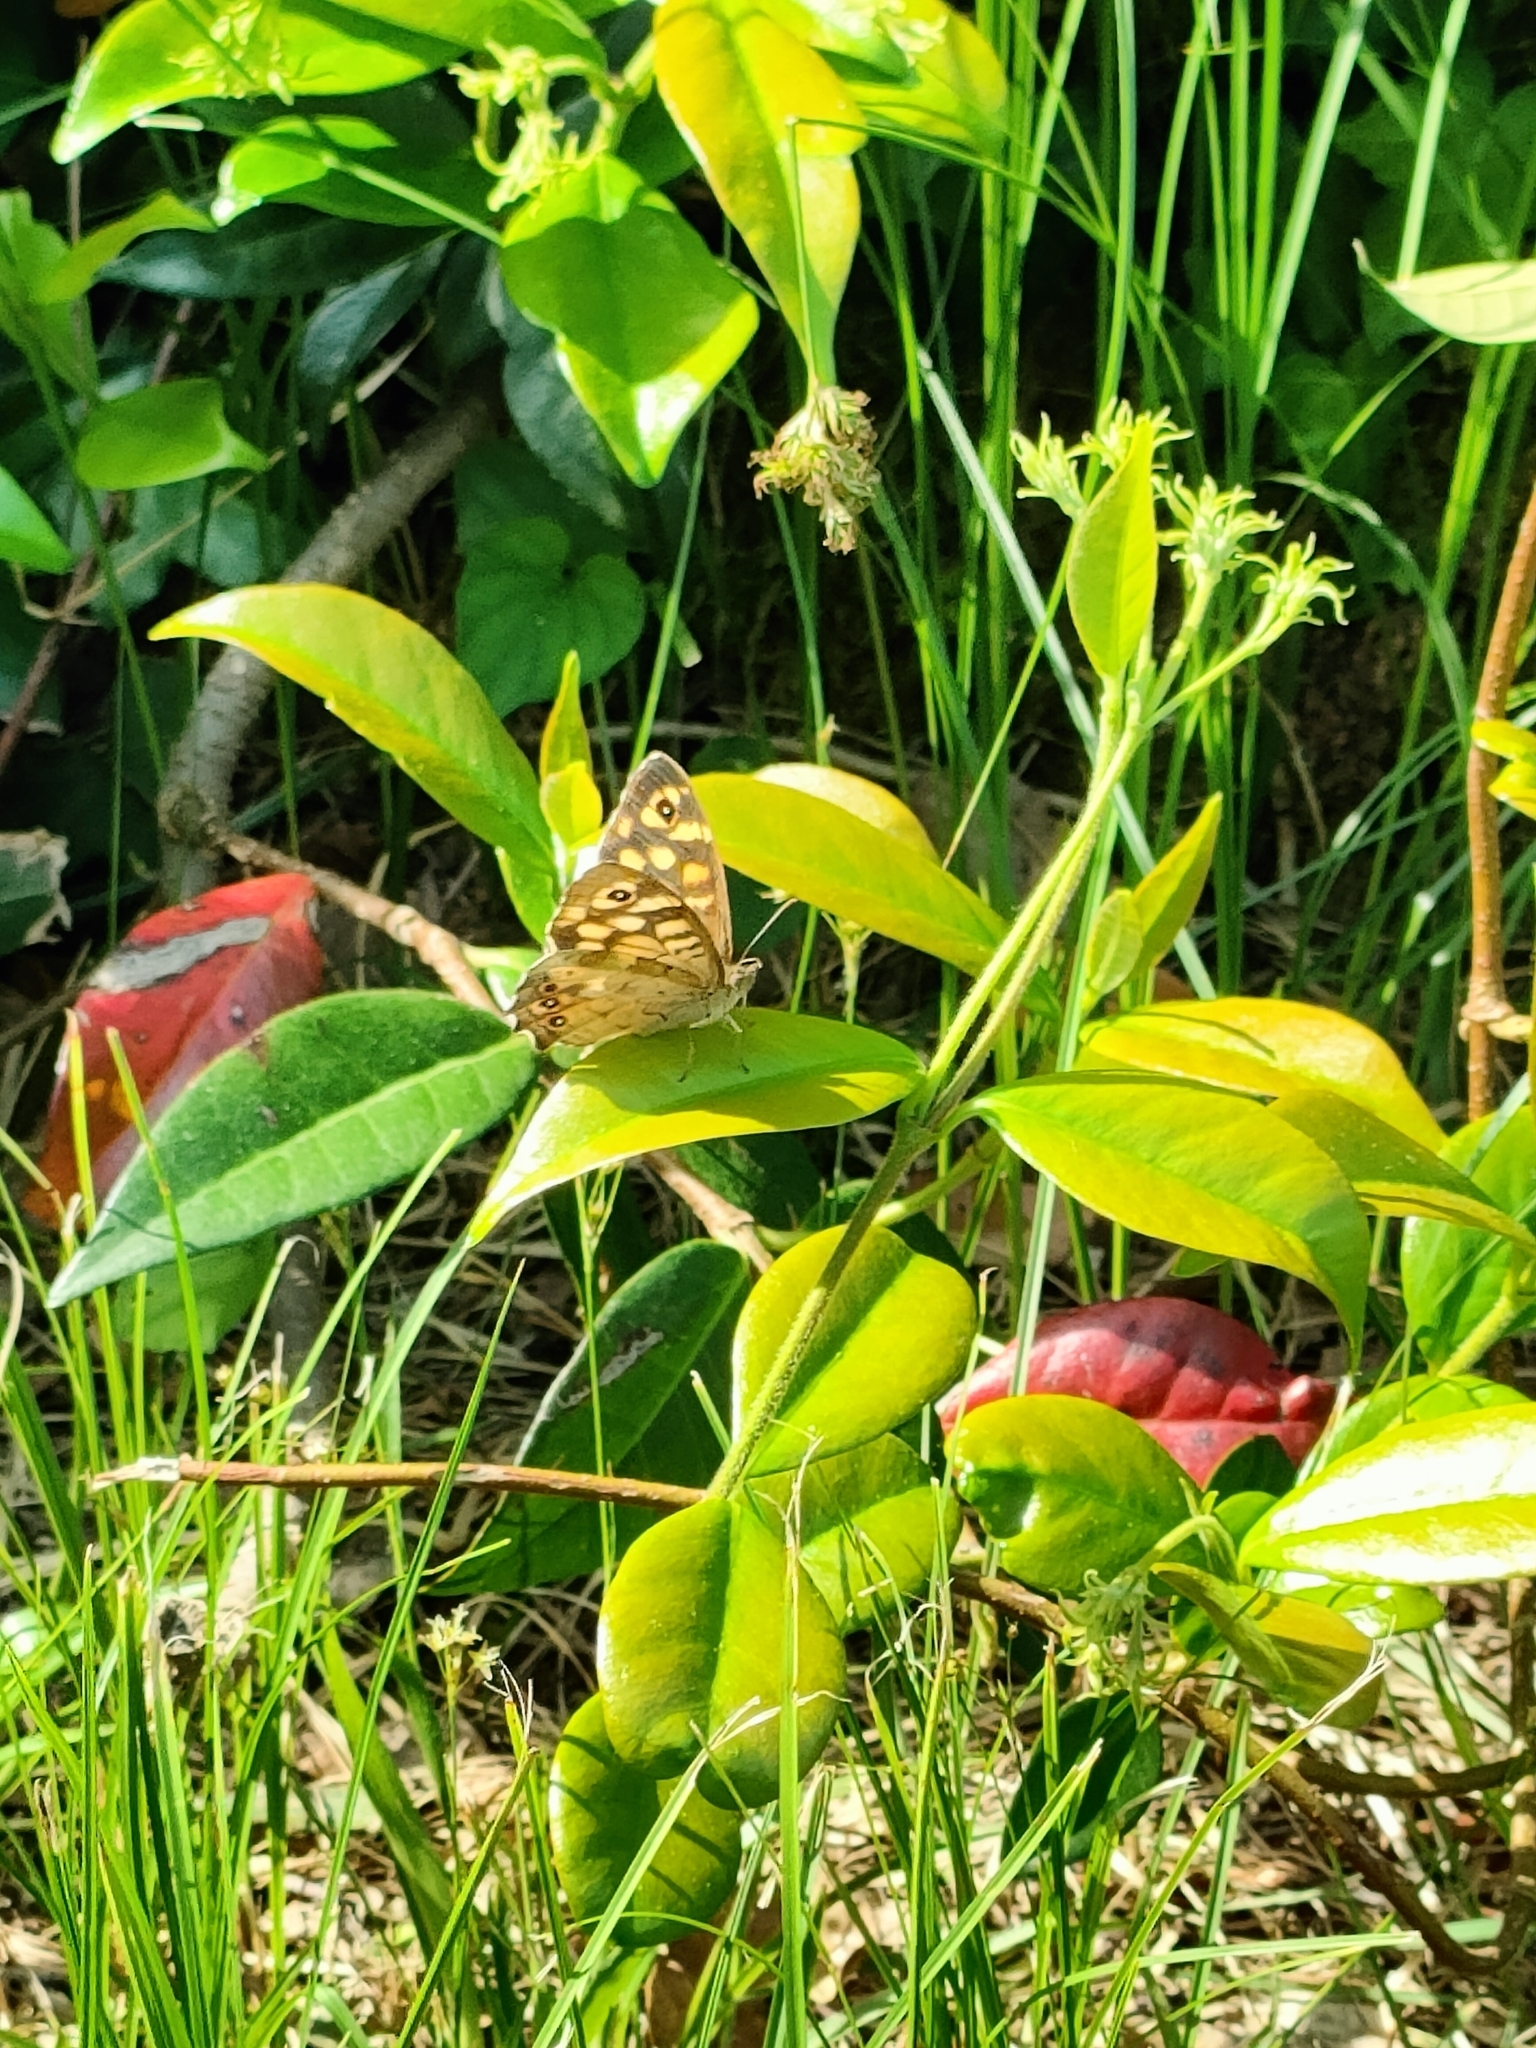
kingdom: Animalia
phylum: Arthropoda
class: Insecta
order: Lepidoptera
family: Nymphalidae
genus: Pararge
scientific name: Pararge aegeria
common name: Speckled wood
